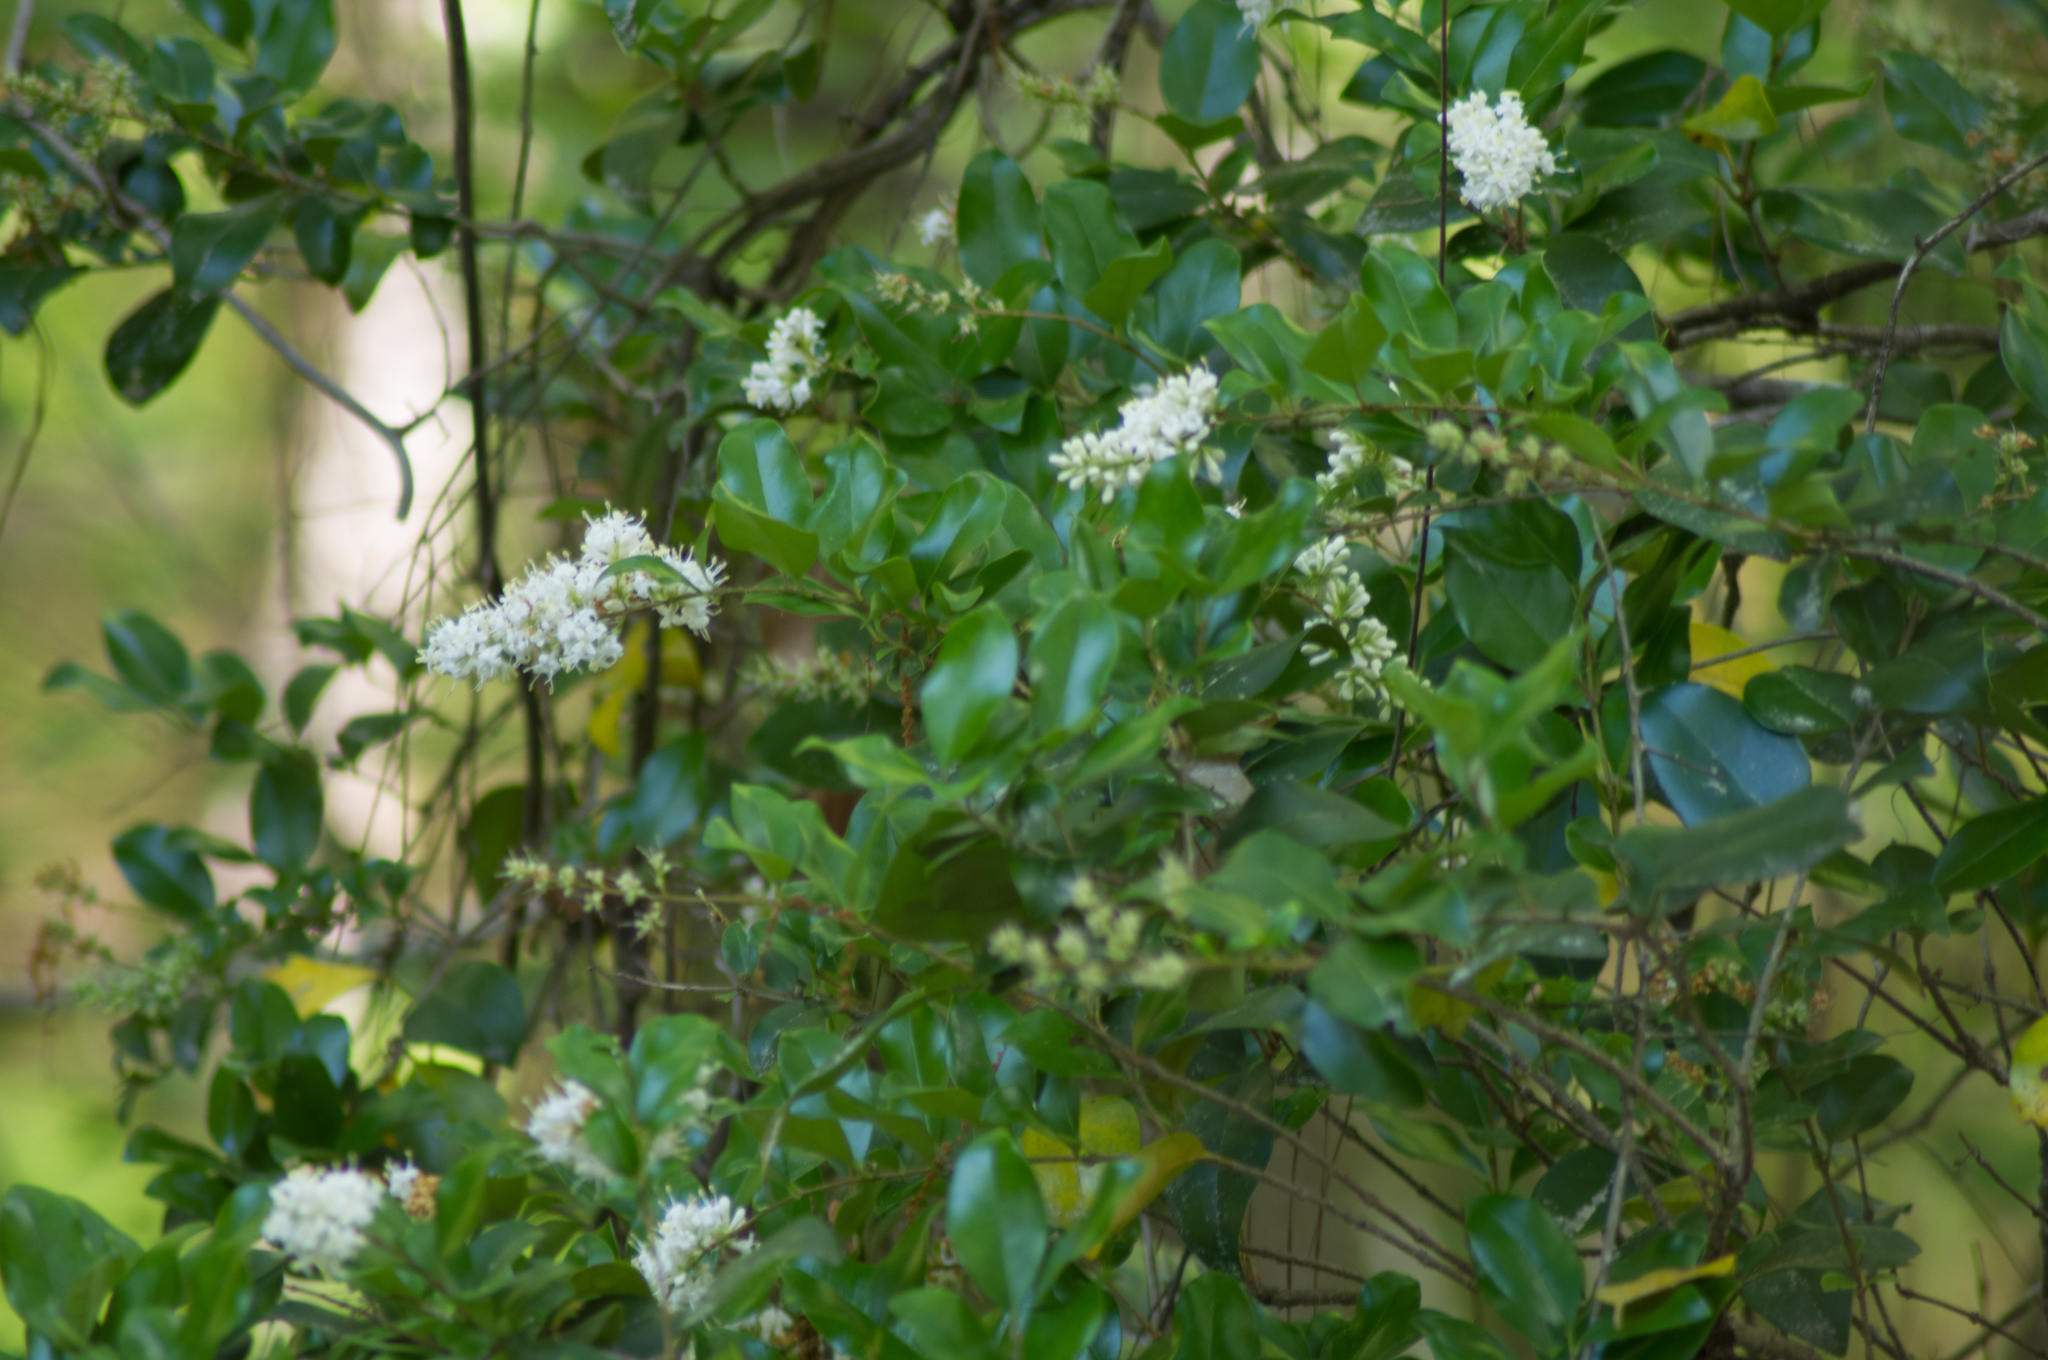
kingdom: Plantae
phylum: Tracheophyta
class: Magnoliopsida
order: Lamiales
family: Oleaceae
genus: Ligustrum
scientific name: Ligustrum sinense
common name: Chinese privet
